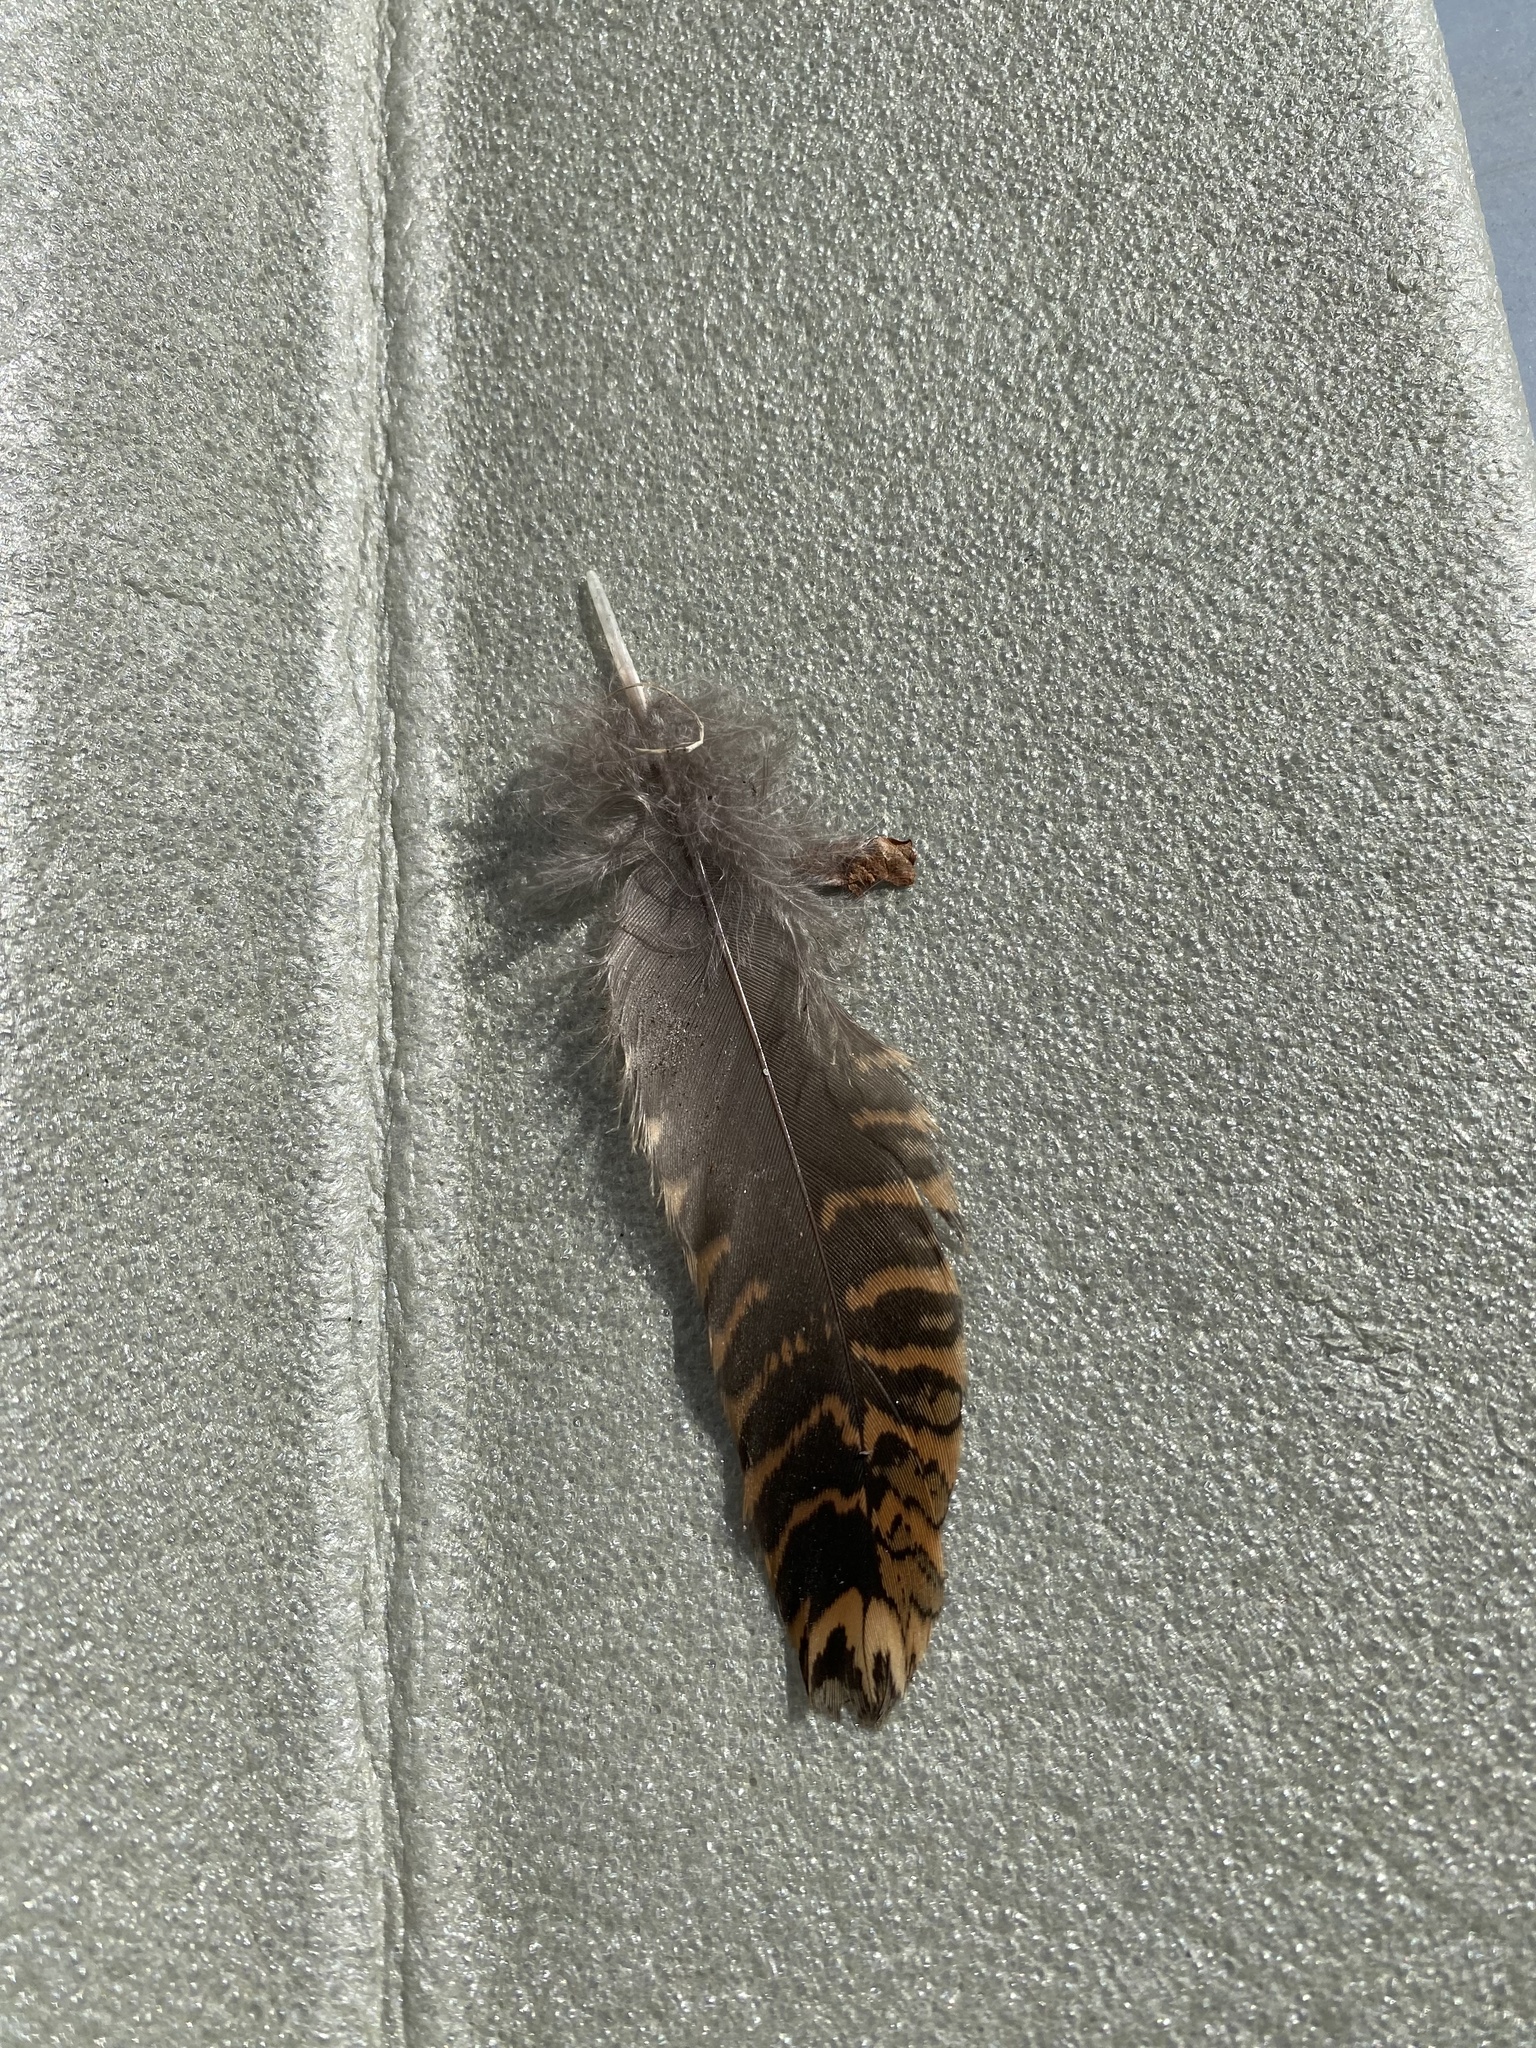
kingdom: Animalia
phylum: Chordata
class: Aves
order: Charadriiformes
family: Scolopacidae
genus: Scolopax
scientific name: Scolopax rusticola
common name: Eurasian woodcock
